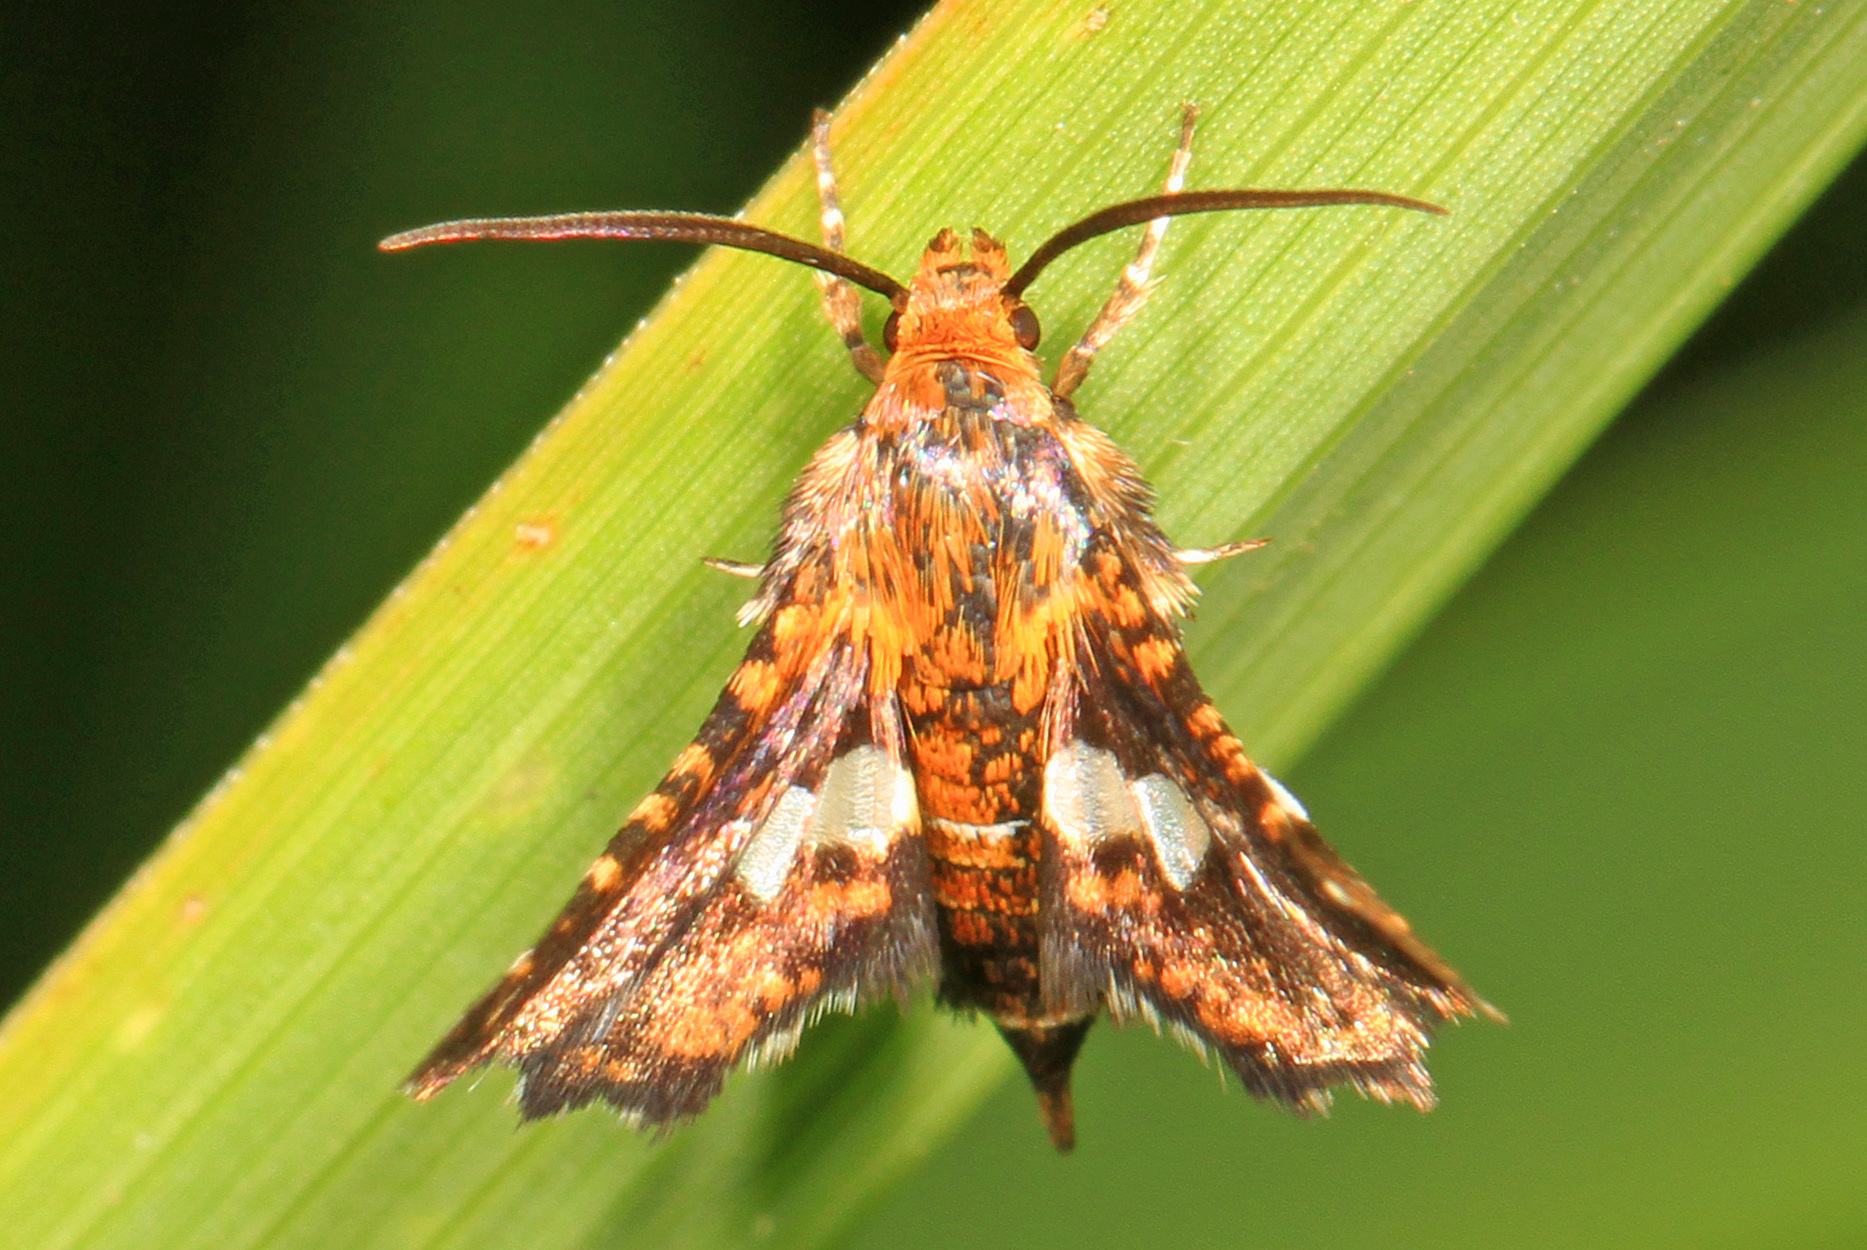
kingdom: Animalia
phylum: Arthropoda
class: Insecta
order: Lepidoptera
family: Thyrididae
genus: Thyris
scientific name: Thyris maculata
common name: Spotted thyris moth
